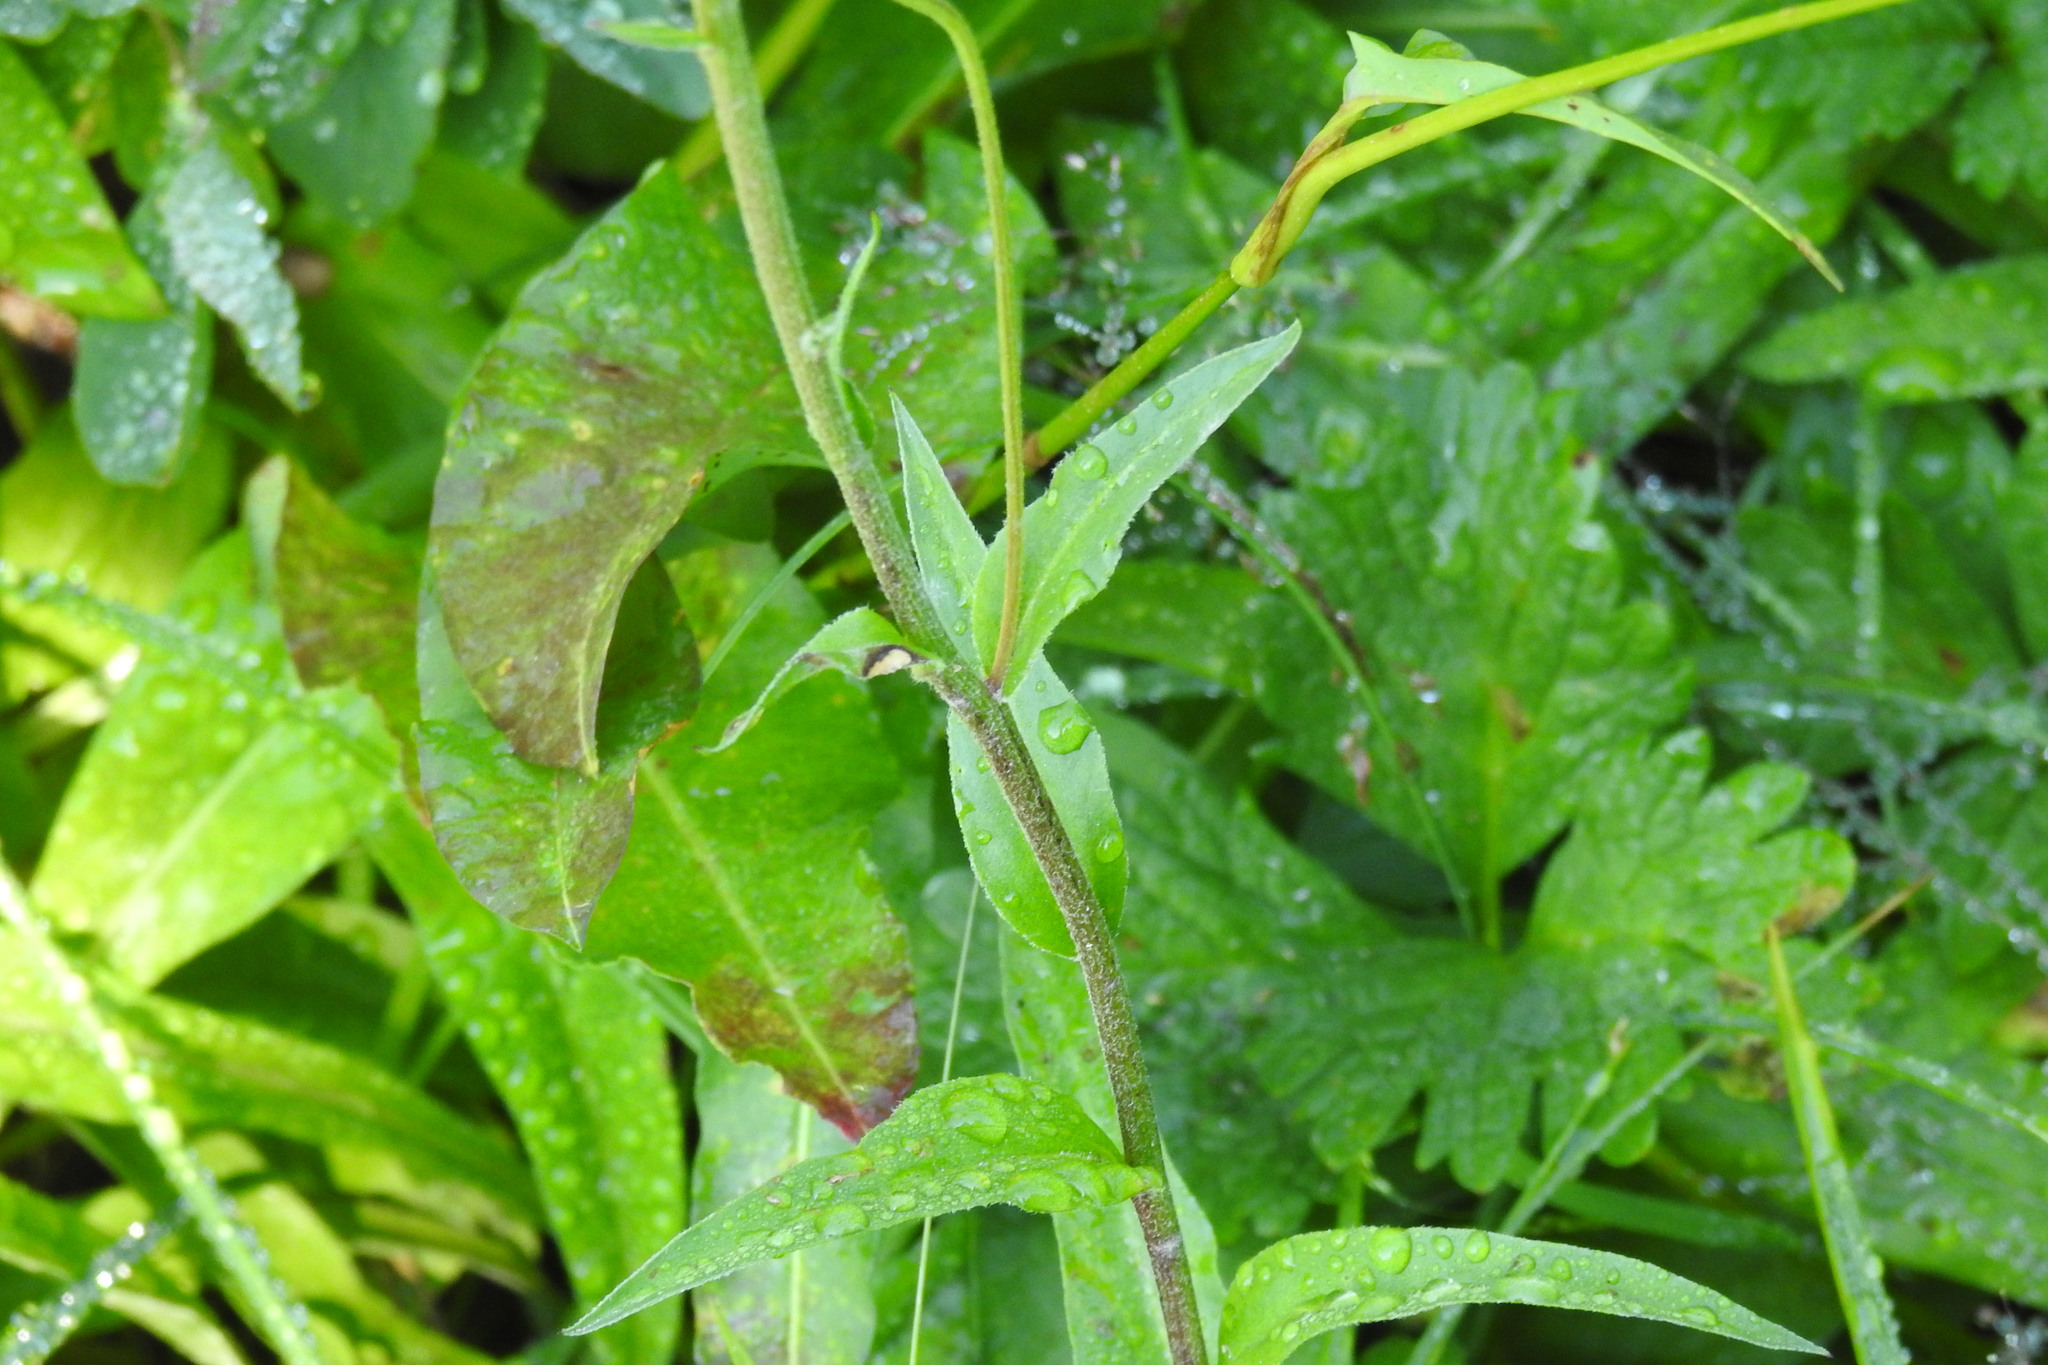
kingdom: Plantae
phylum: Tracheophyta
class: Magnoliopsida
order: Asterales
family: Asteraceae
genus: Erigeron
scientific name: Erigeron glacialis
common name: Subalpine fleabane
